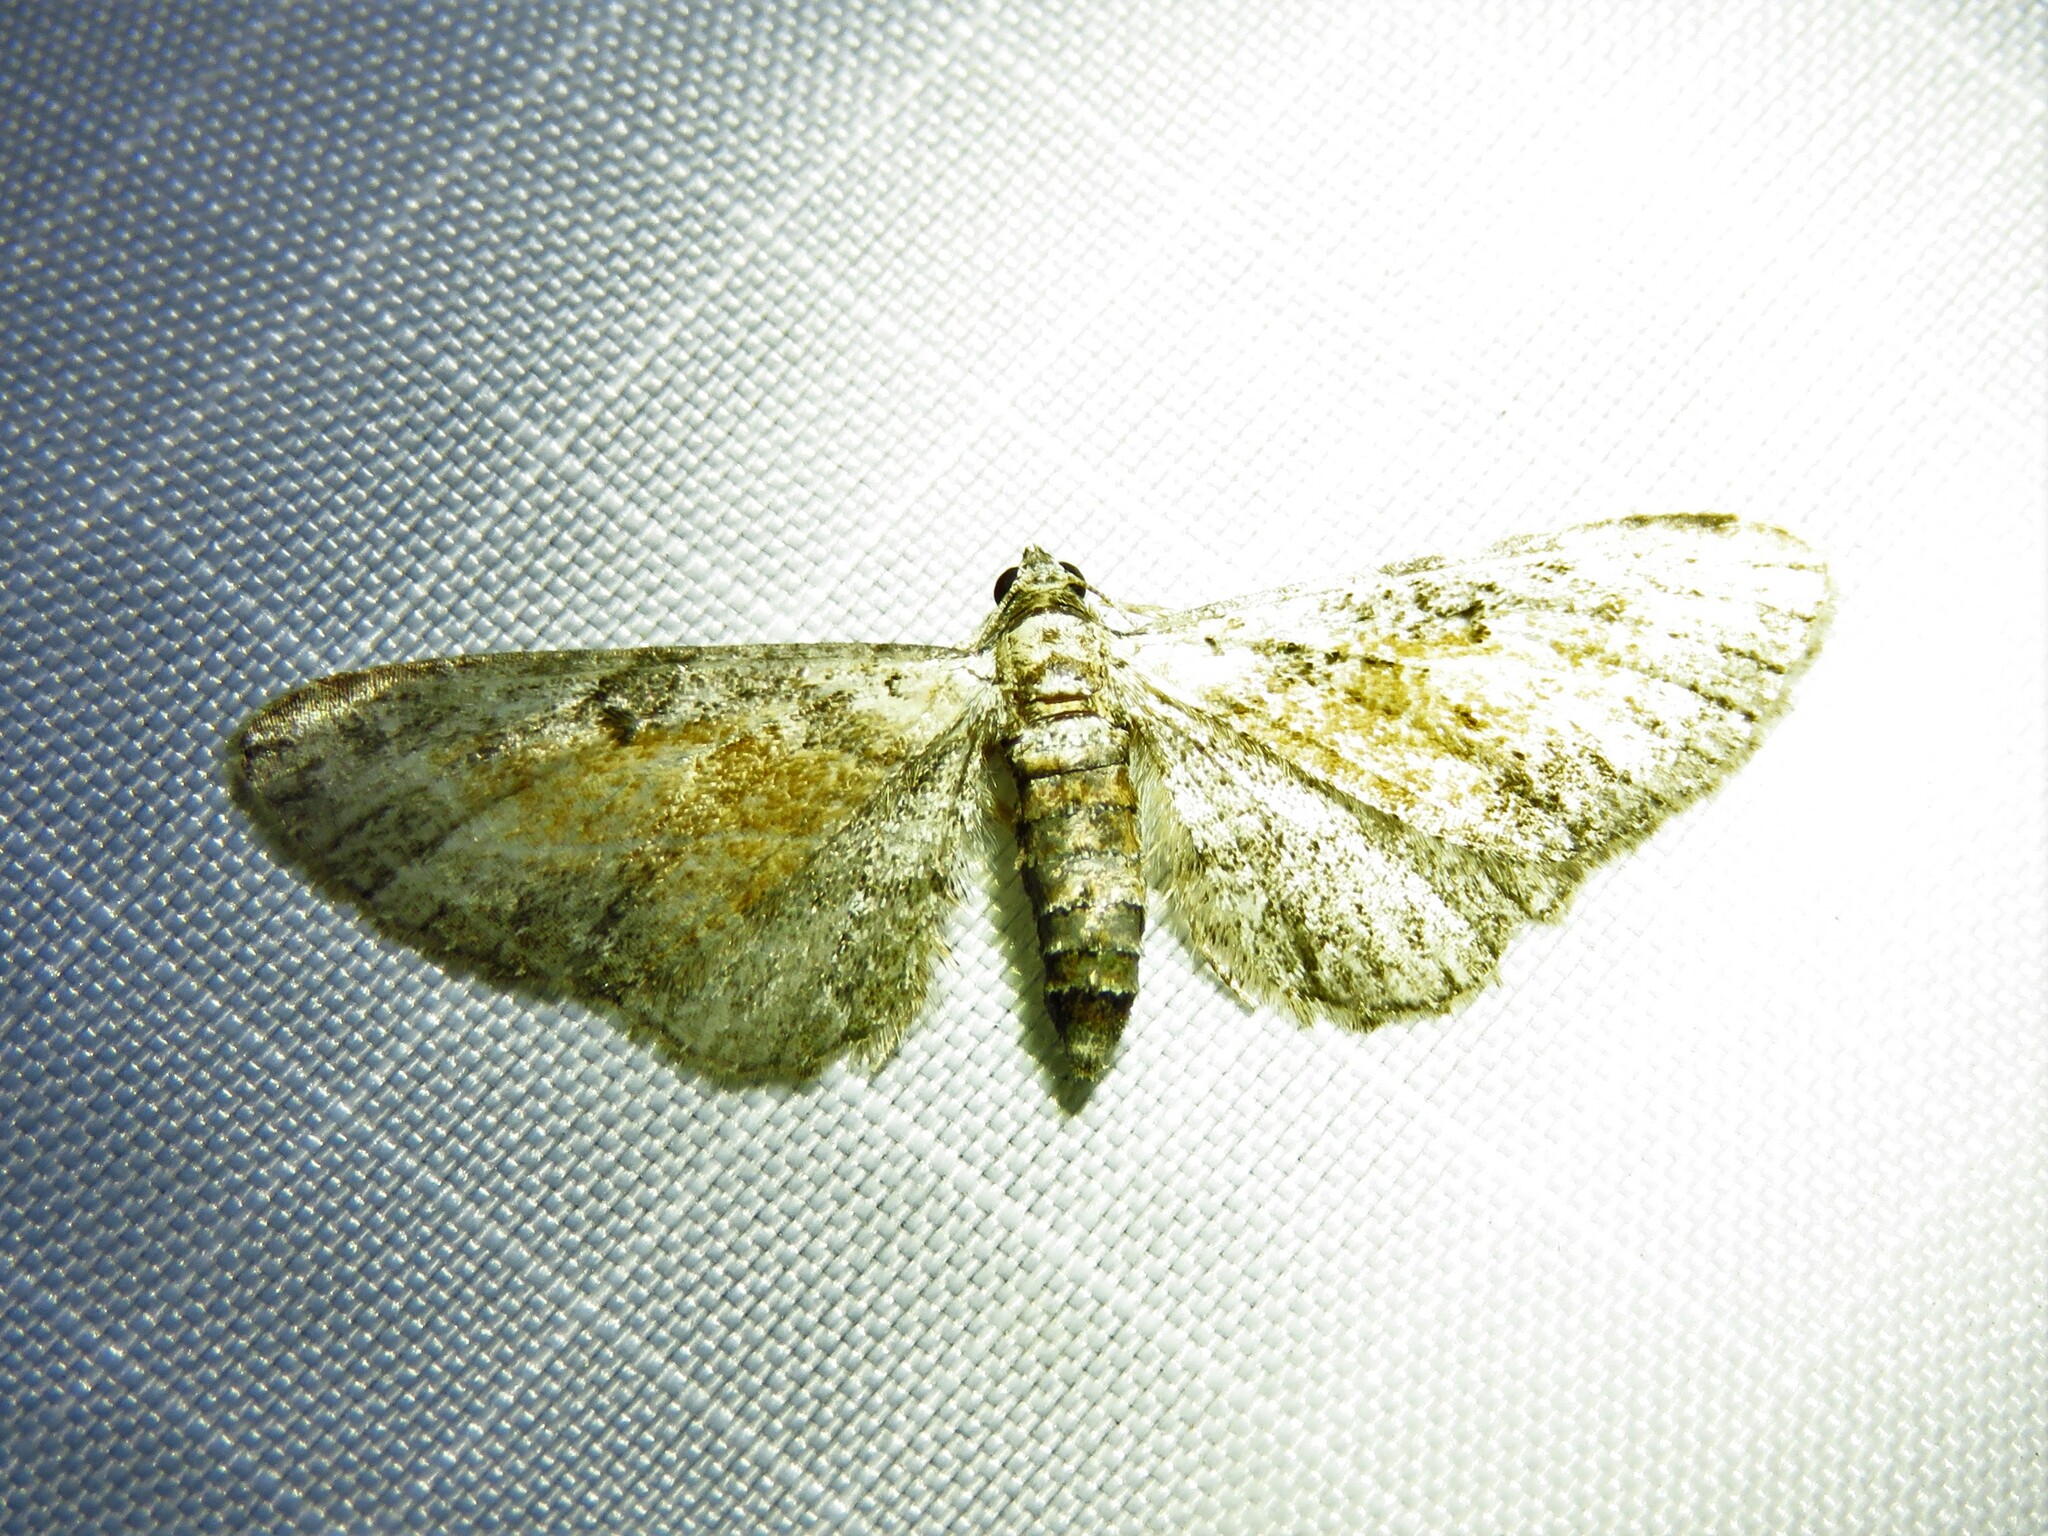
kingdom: Animalia
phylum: Arthropoda
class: Insecta
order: Lepidoptera
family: Geometridae
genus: Eupithecia
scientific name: Eupithecia icterata
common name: Tawny speckled pug
